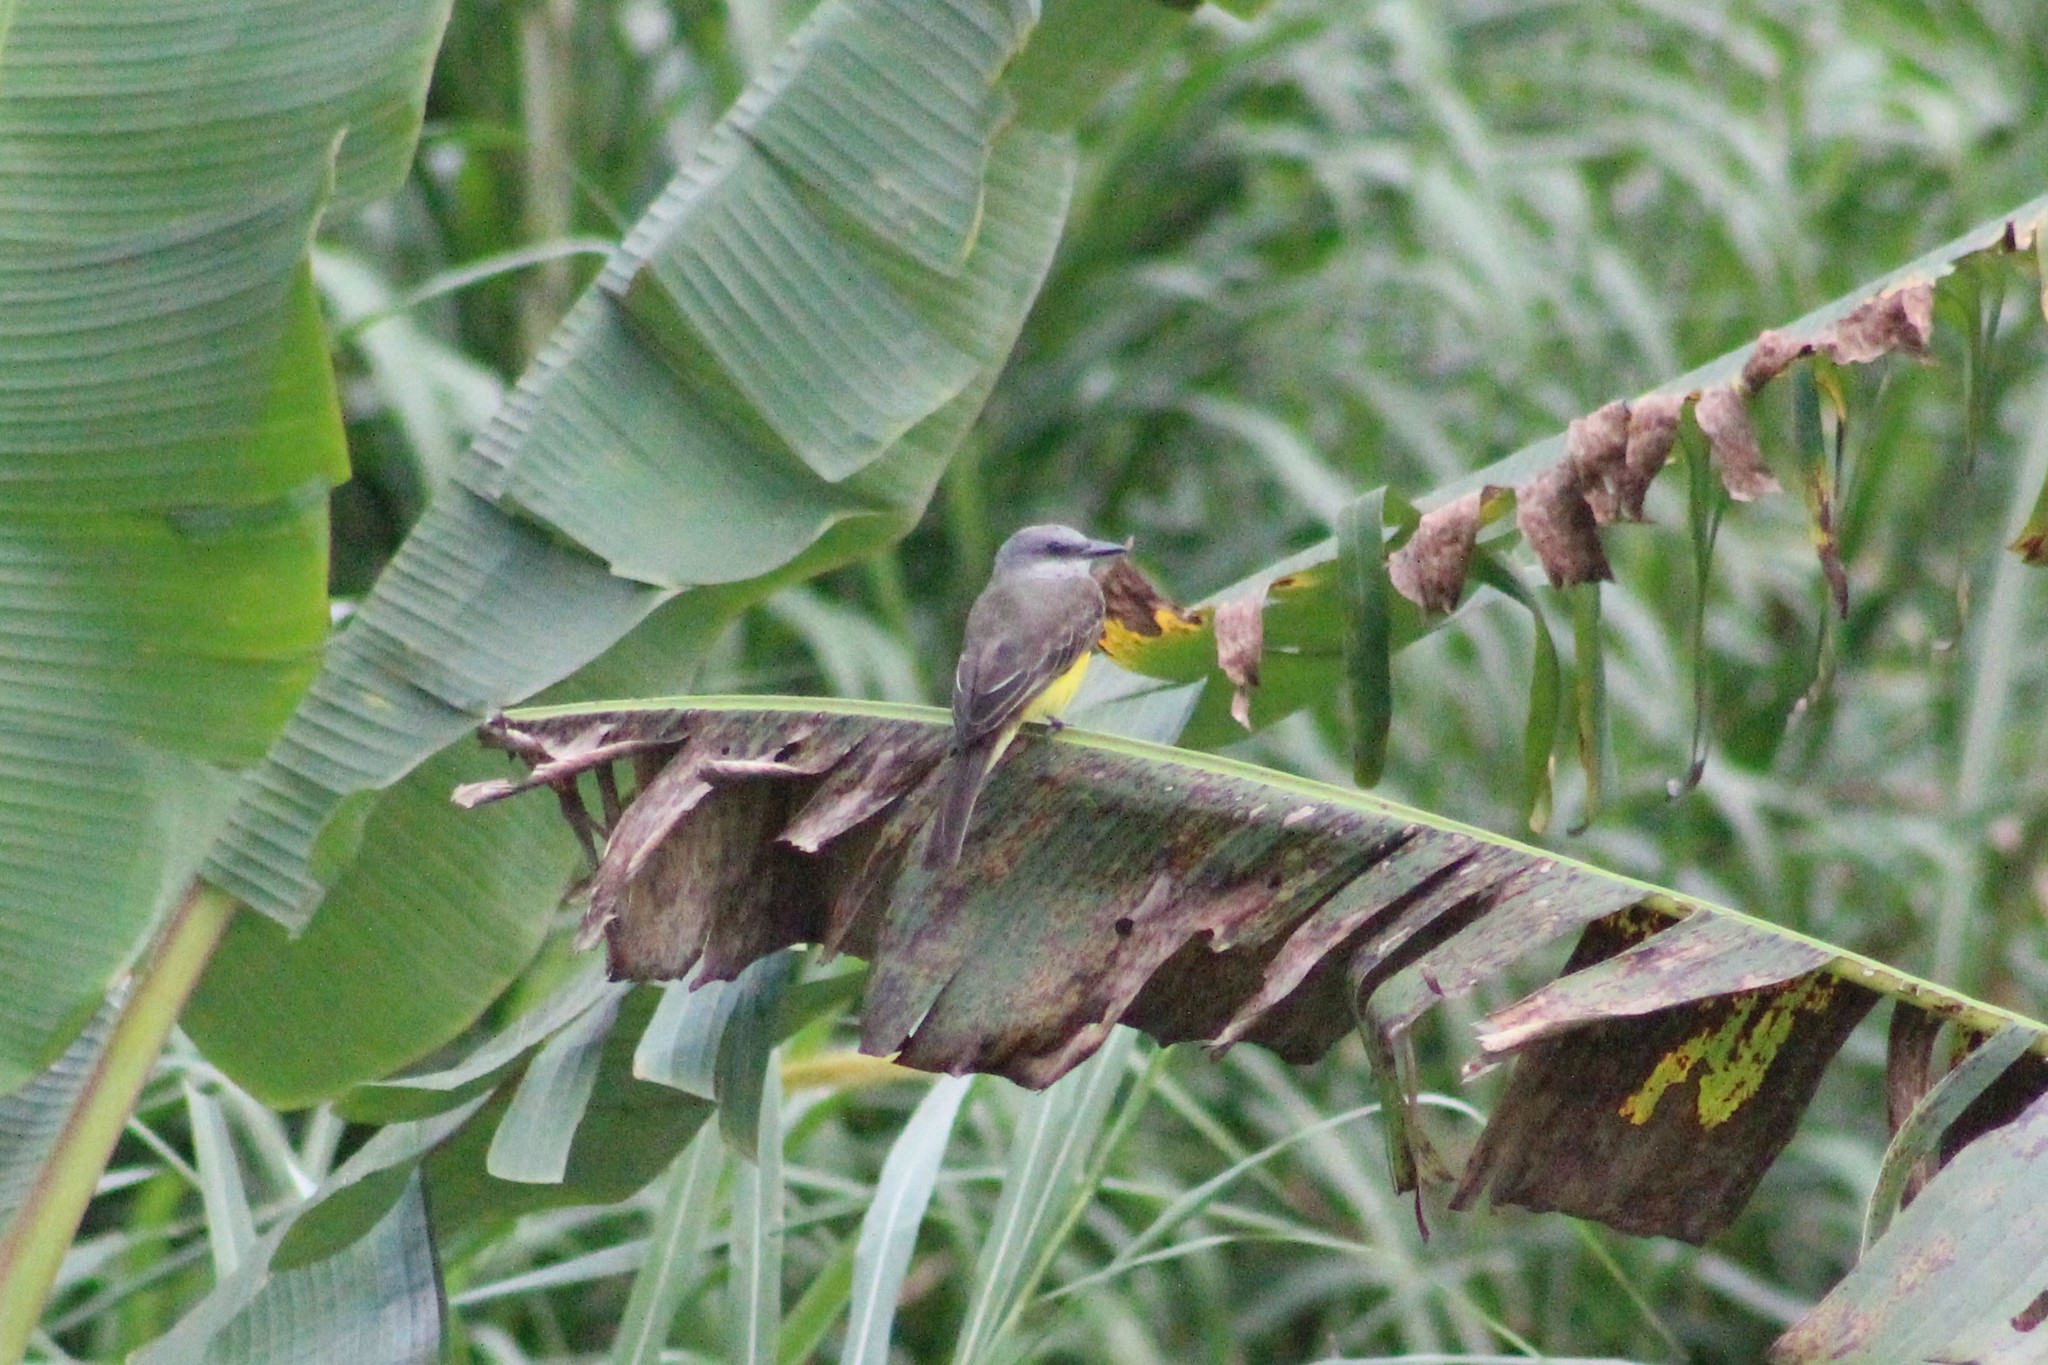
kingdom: Animalia
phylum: Chordata
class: Aves
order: Passeriformes
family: Tyrannidae
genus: Tyrannus
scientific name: Tyrannus melancholicus
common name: Tropical kingbird
